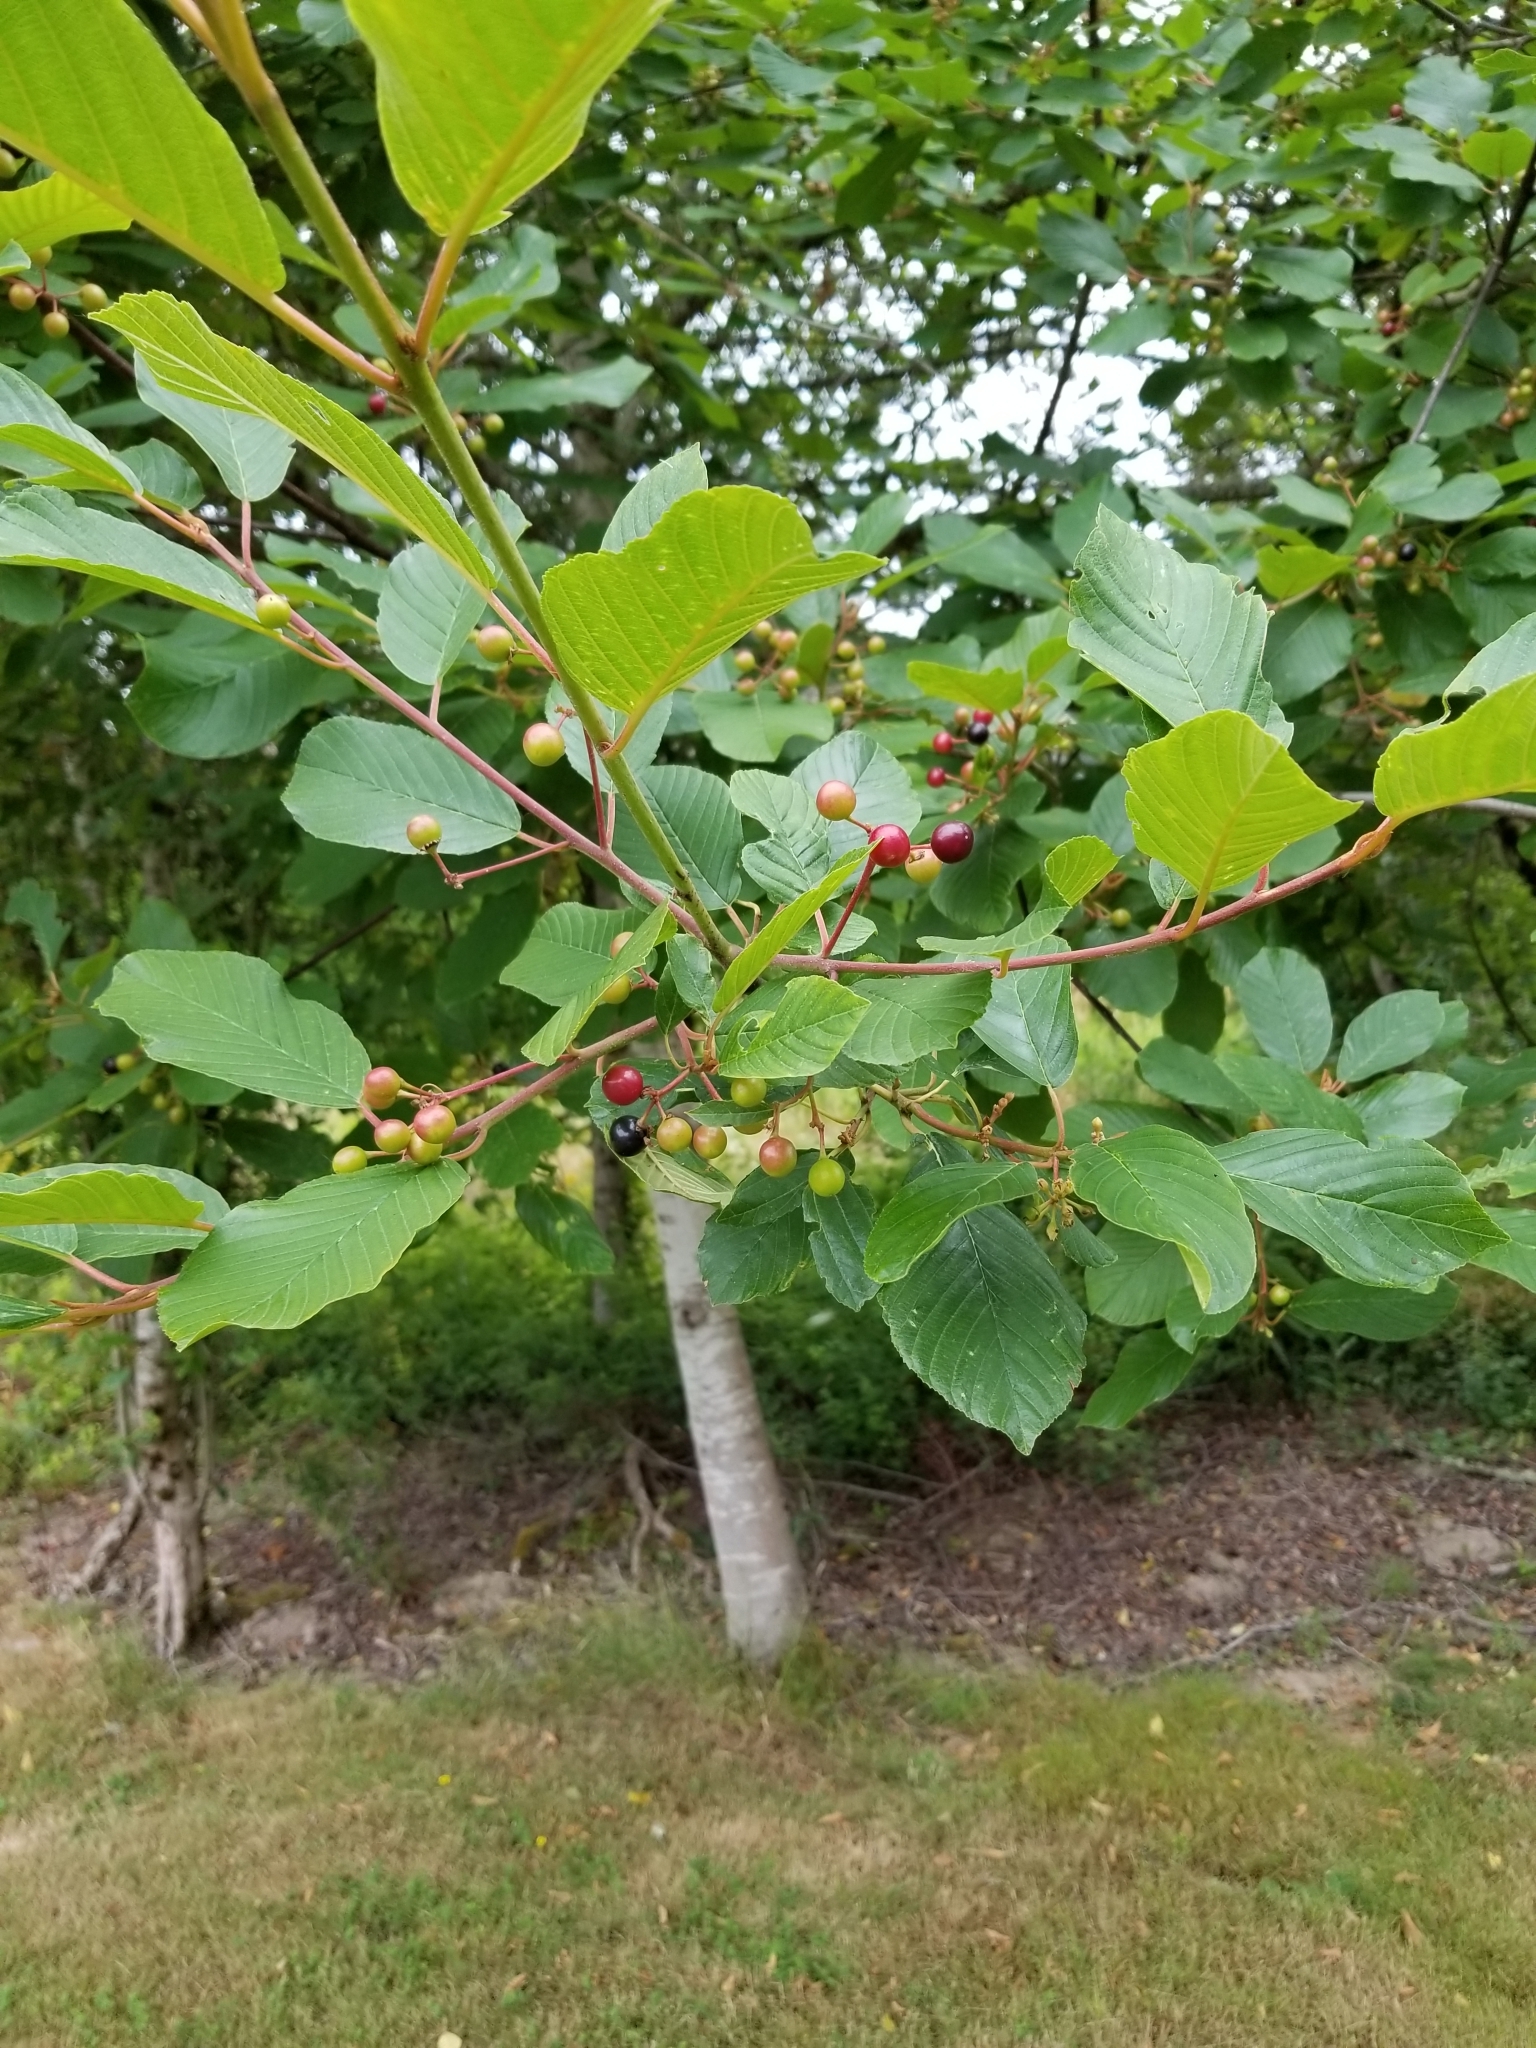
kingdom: Plantae
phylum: Tracheophyta
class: Magnoliopsida
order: Rosales
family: Rhamnaceae
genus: Frangula
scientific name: Frangula purshiana
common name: Cascara buckthorn
